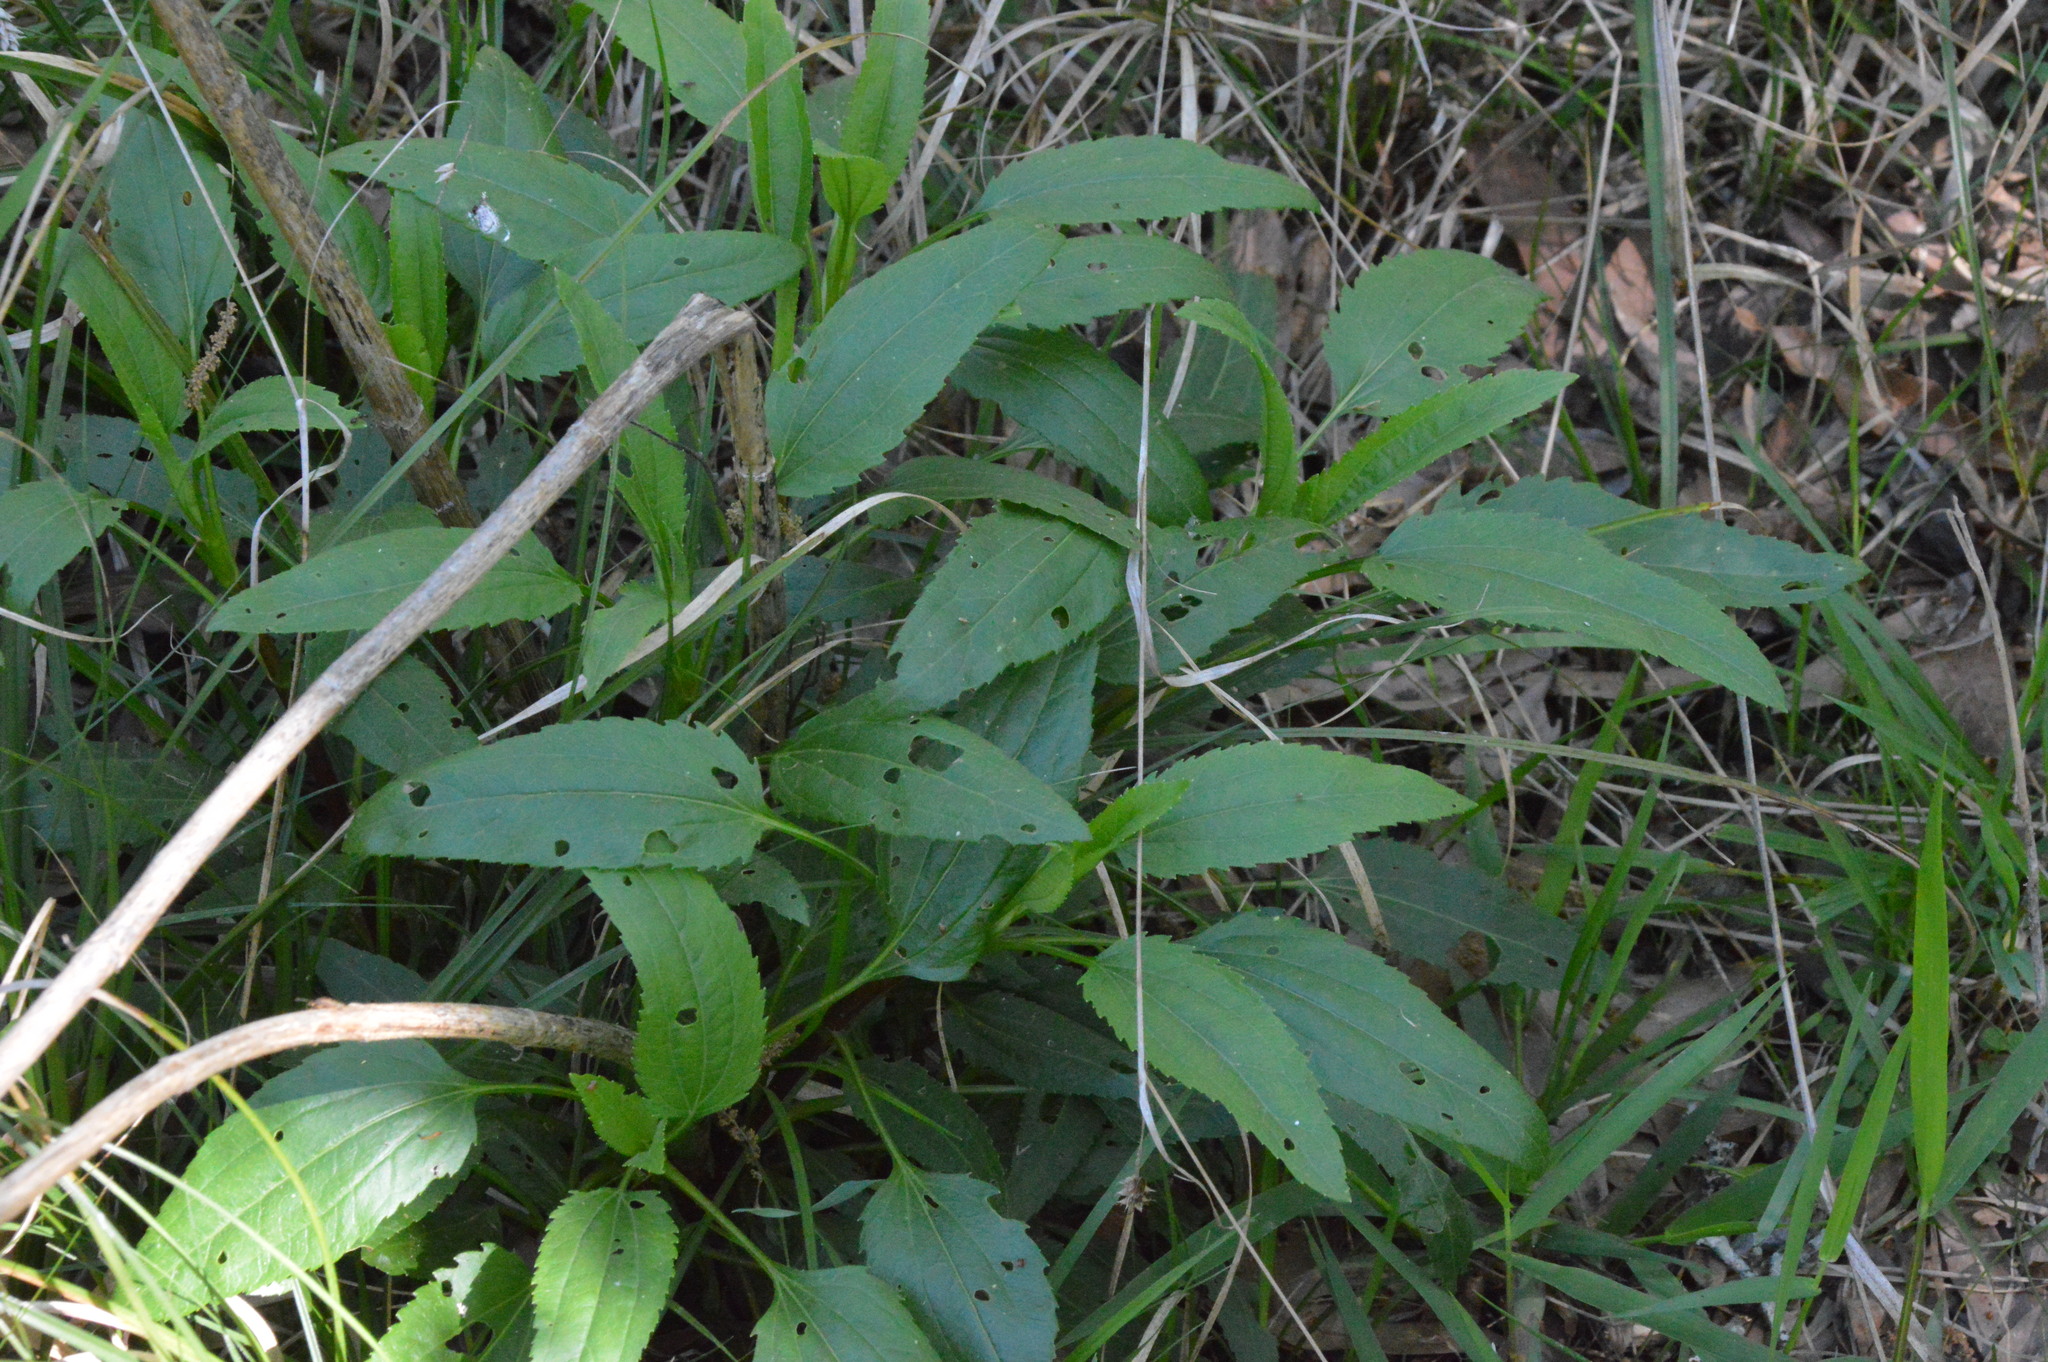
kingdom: Plantae
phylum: Tracheophyta
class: Magnoliopsida
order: Asterales
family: Asteraceae
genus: Eupatorium
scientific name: Eupatorium serotinum
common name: Late boneset
